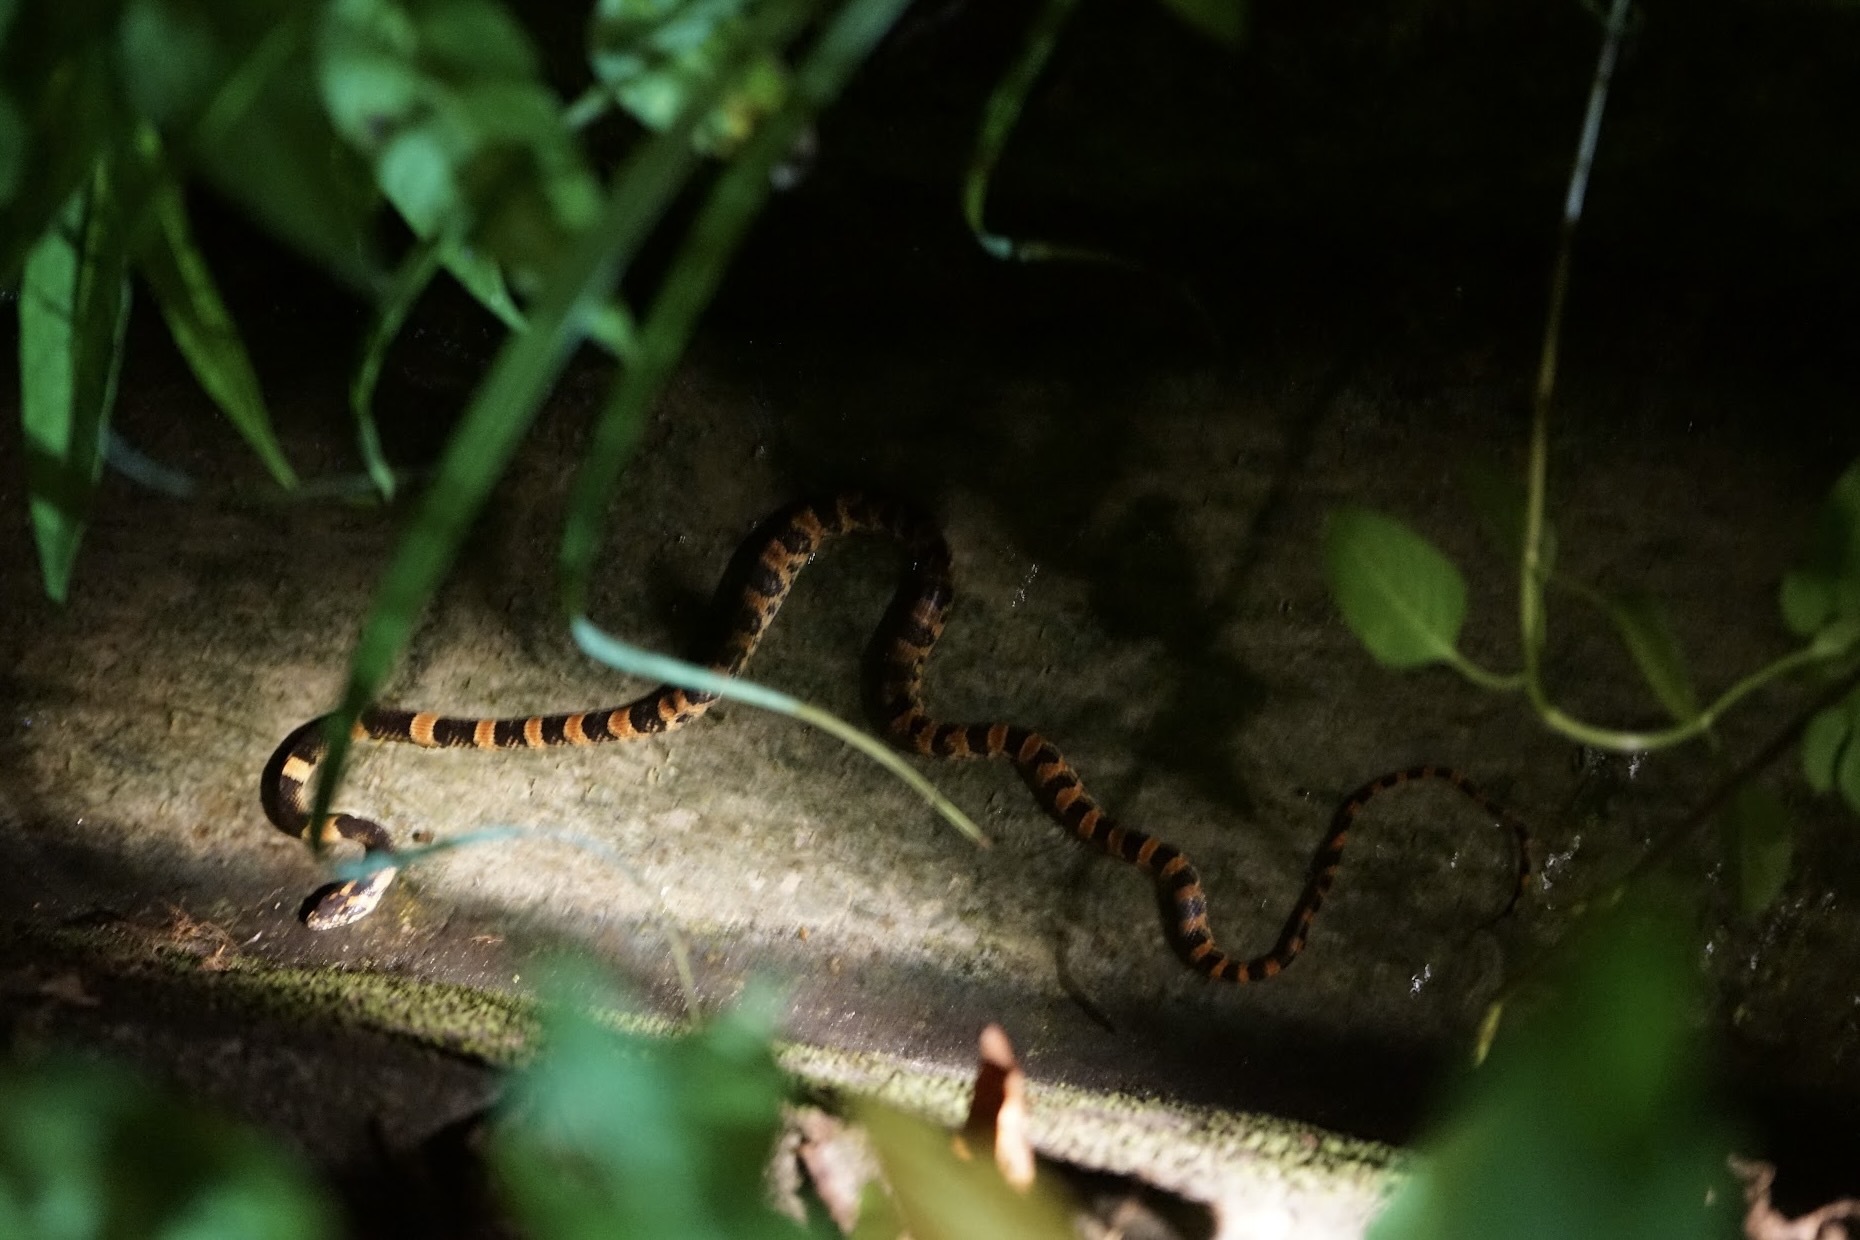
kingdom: Animalia
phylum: Chordata
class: Squamata
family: Colubridae
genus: Lycodon
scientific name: Lycodon semicarinatus
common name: Loo-choo big-tooth snake
